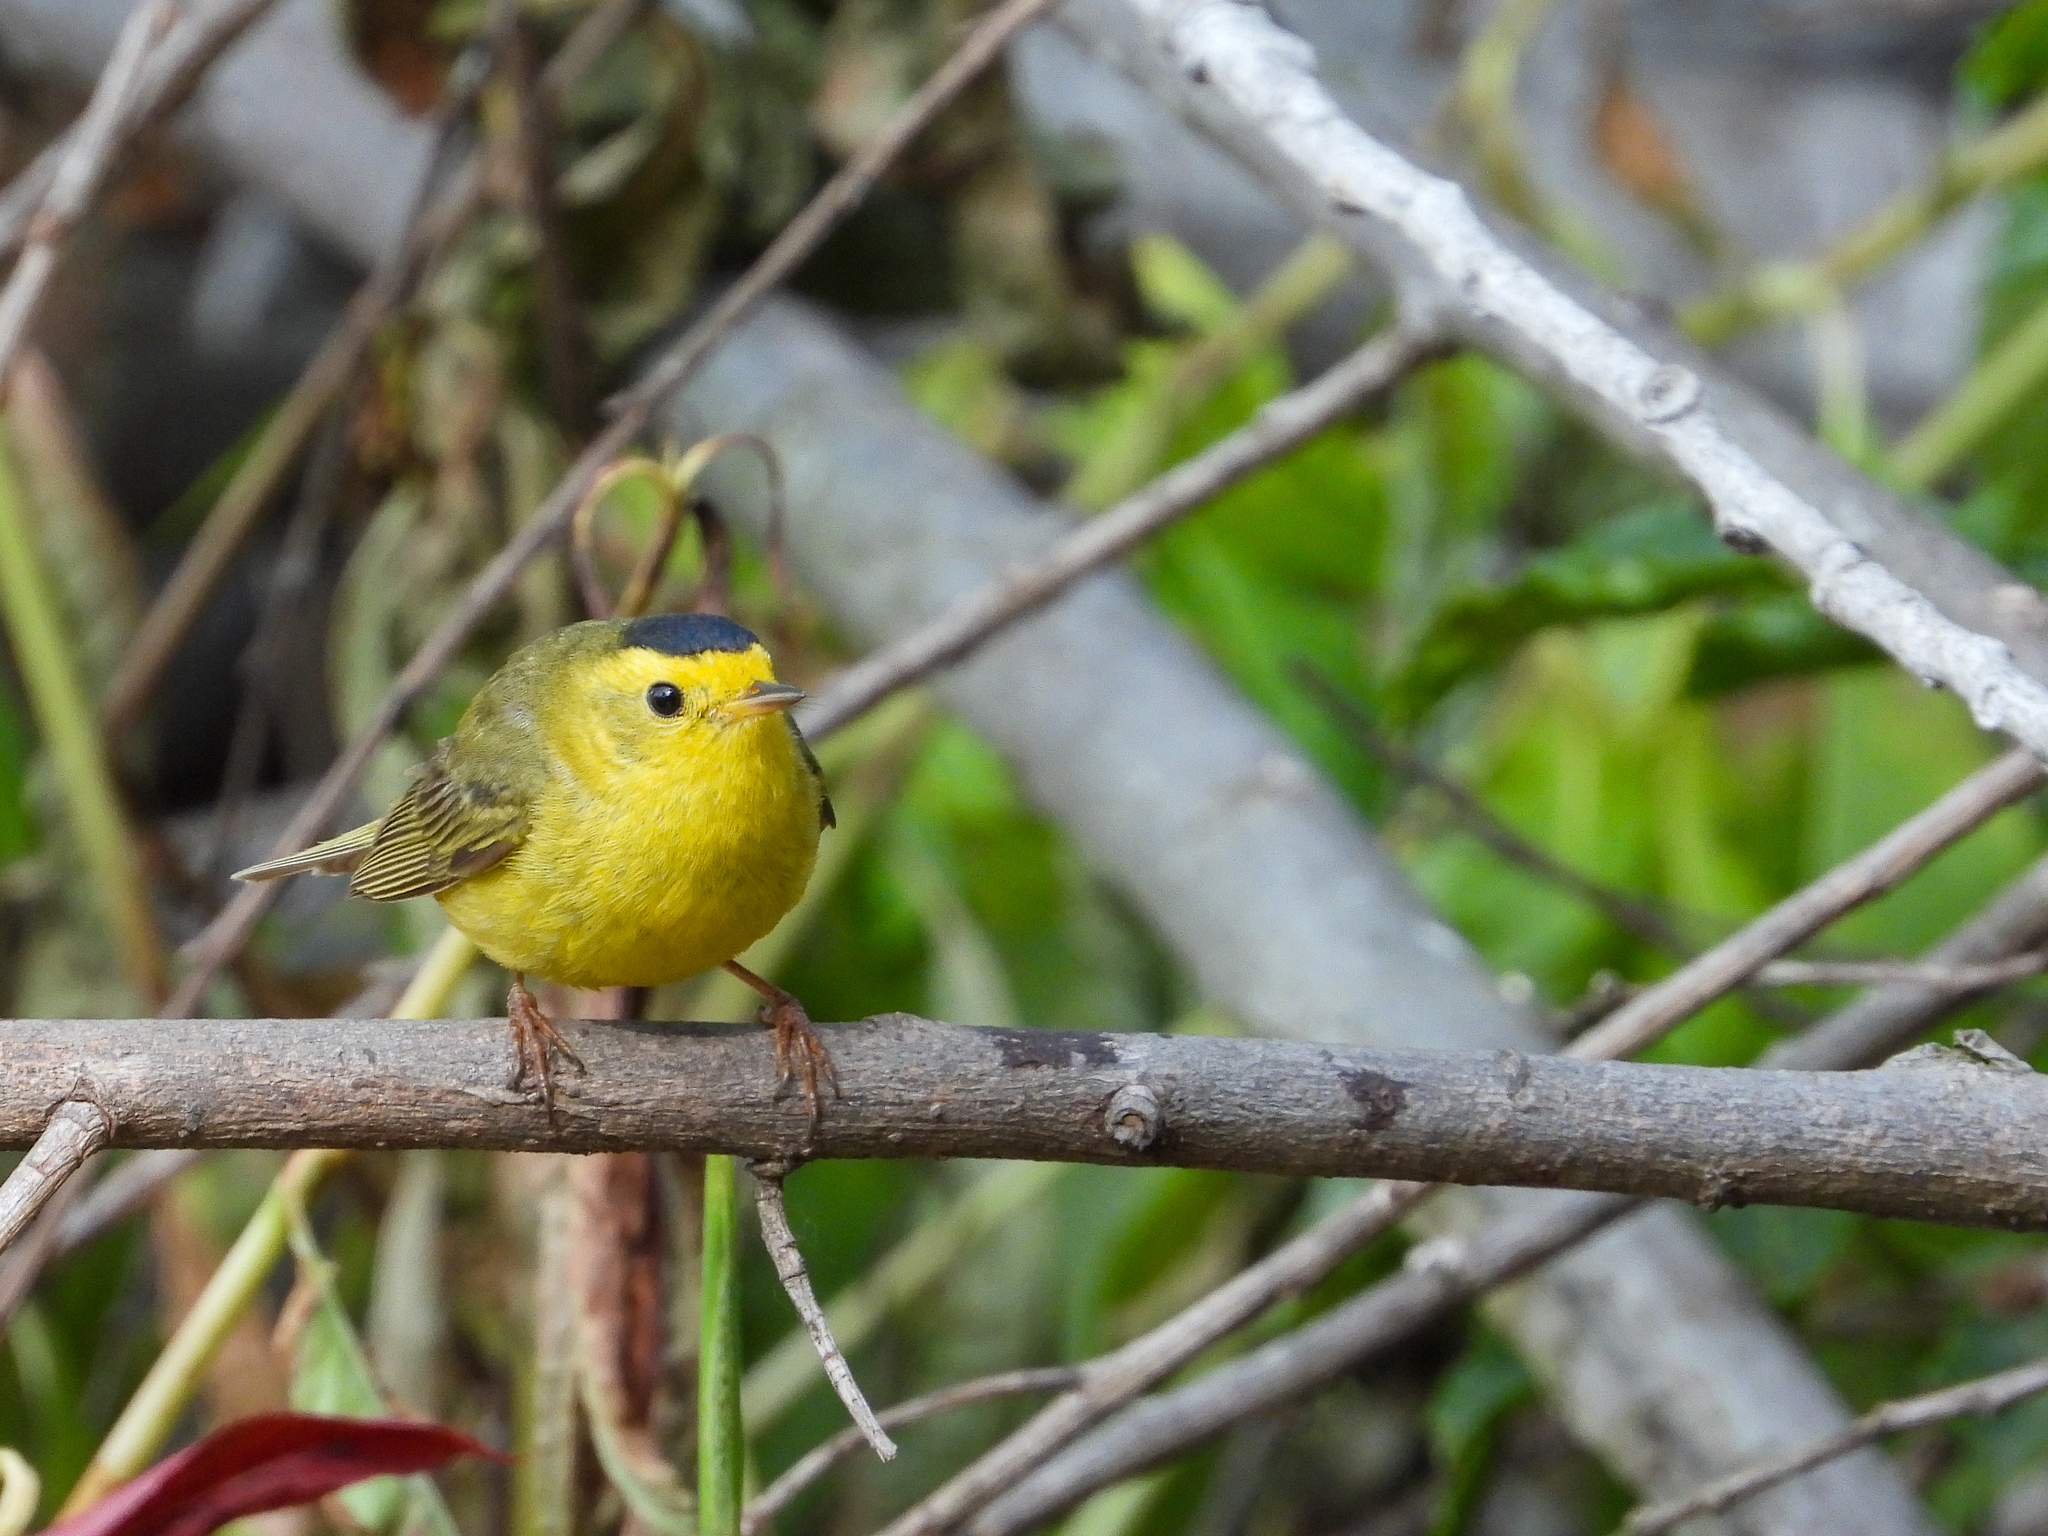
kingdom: Animalia
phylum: Chordata
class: Aves
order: Passeriformes
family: Parulidae
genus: Cardellina
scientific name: Cardellina pusilla
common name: Wilson's warbler
